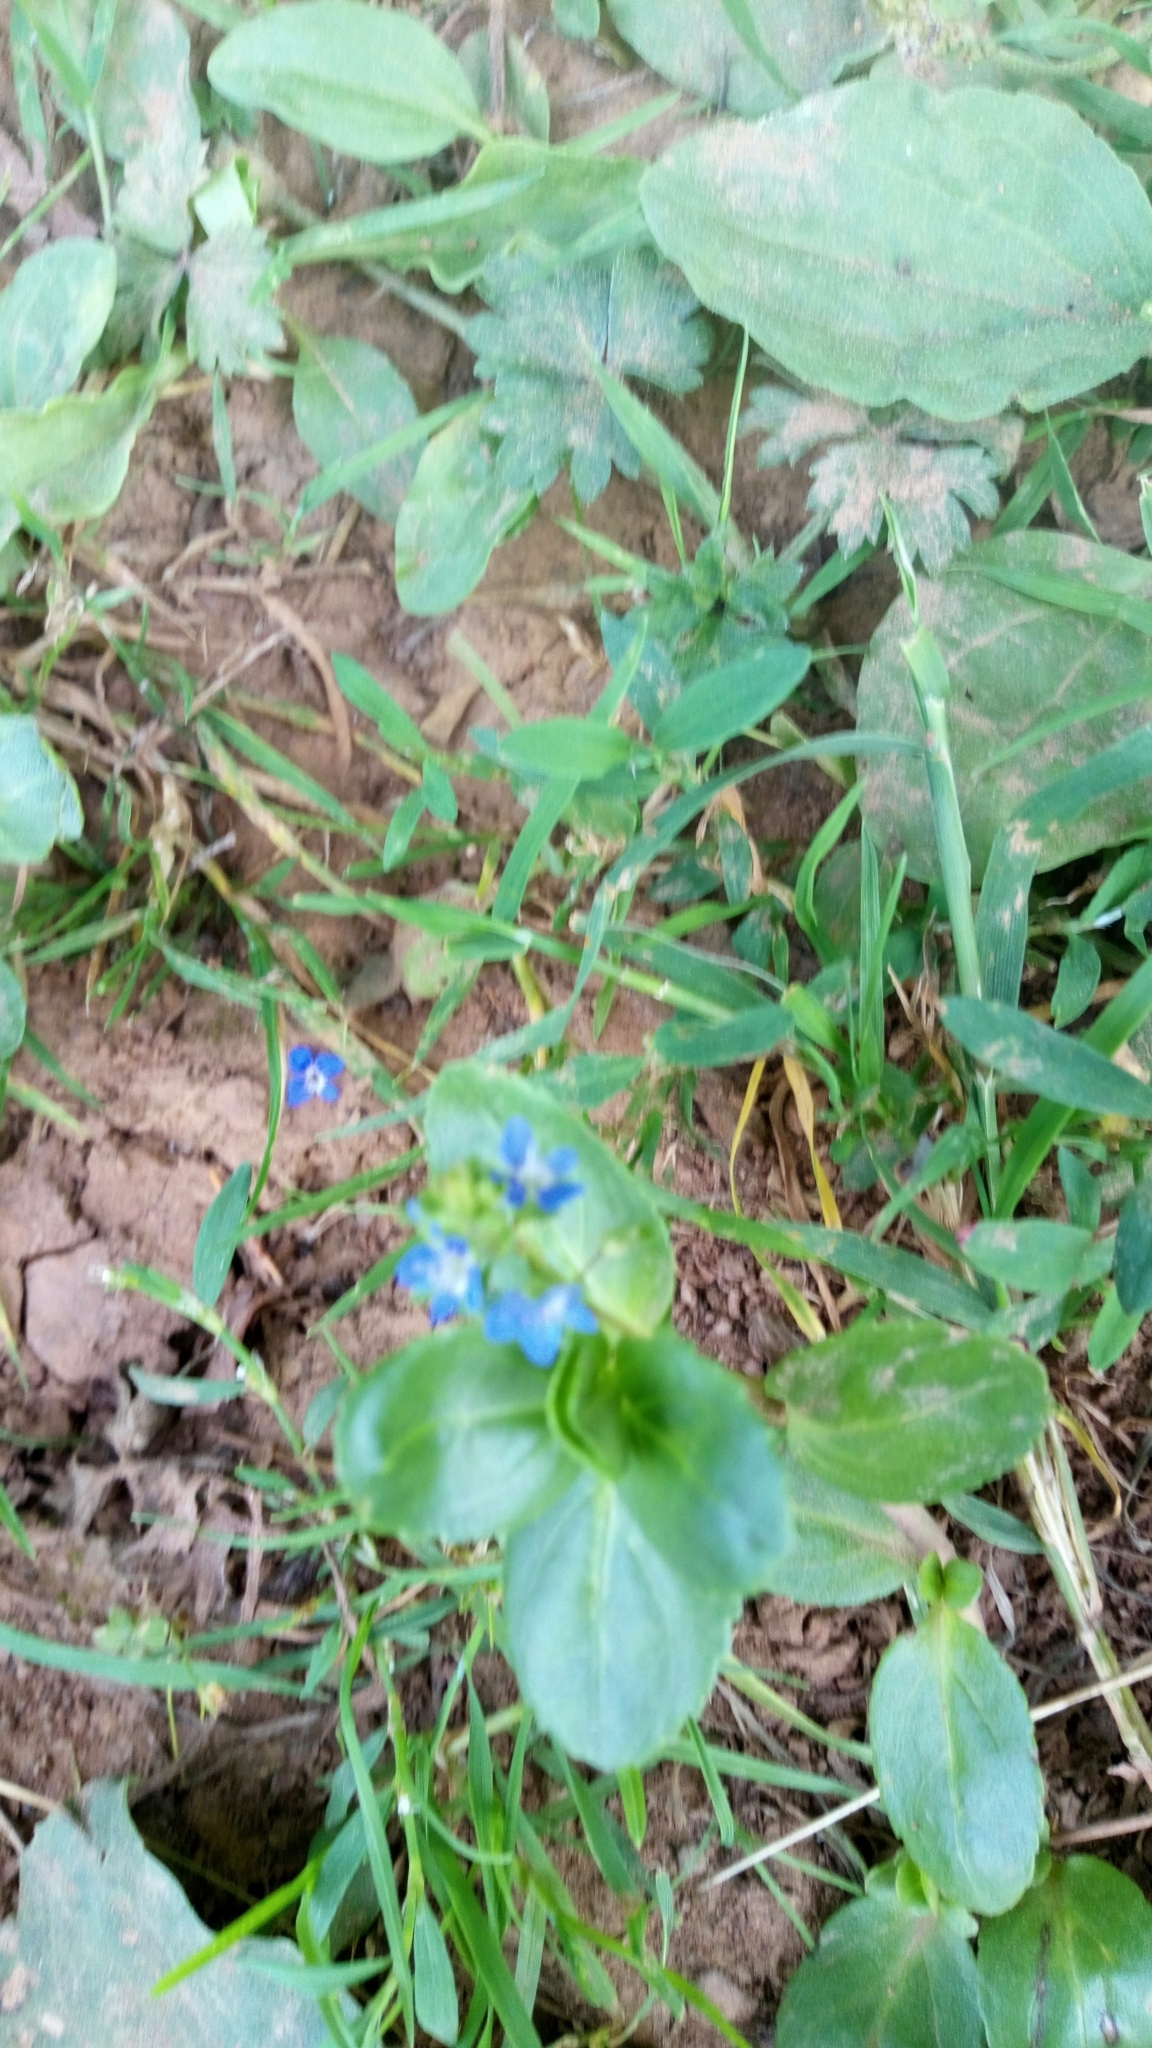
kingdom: Plantae
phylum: Tracheophyta
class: Magnoliopsida
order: Lamiales
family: Plantaginaceae
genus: Veronica
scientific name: Veronica beccabunga
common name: Brooklime
